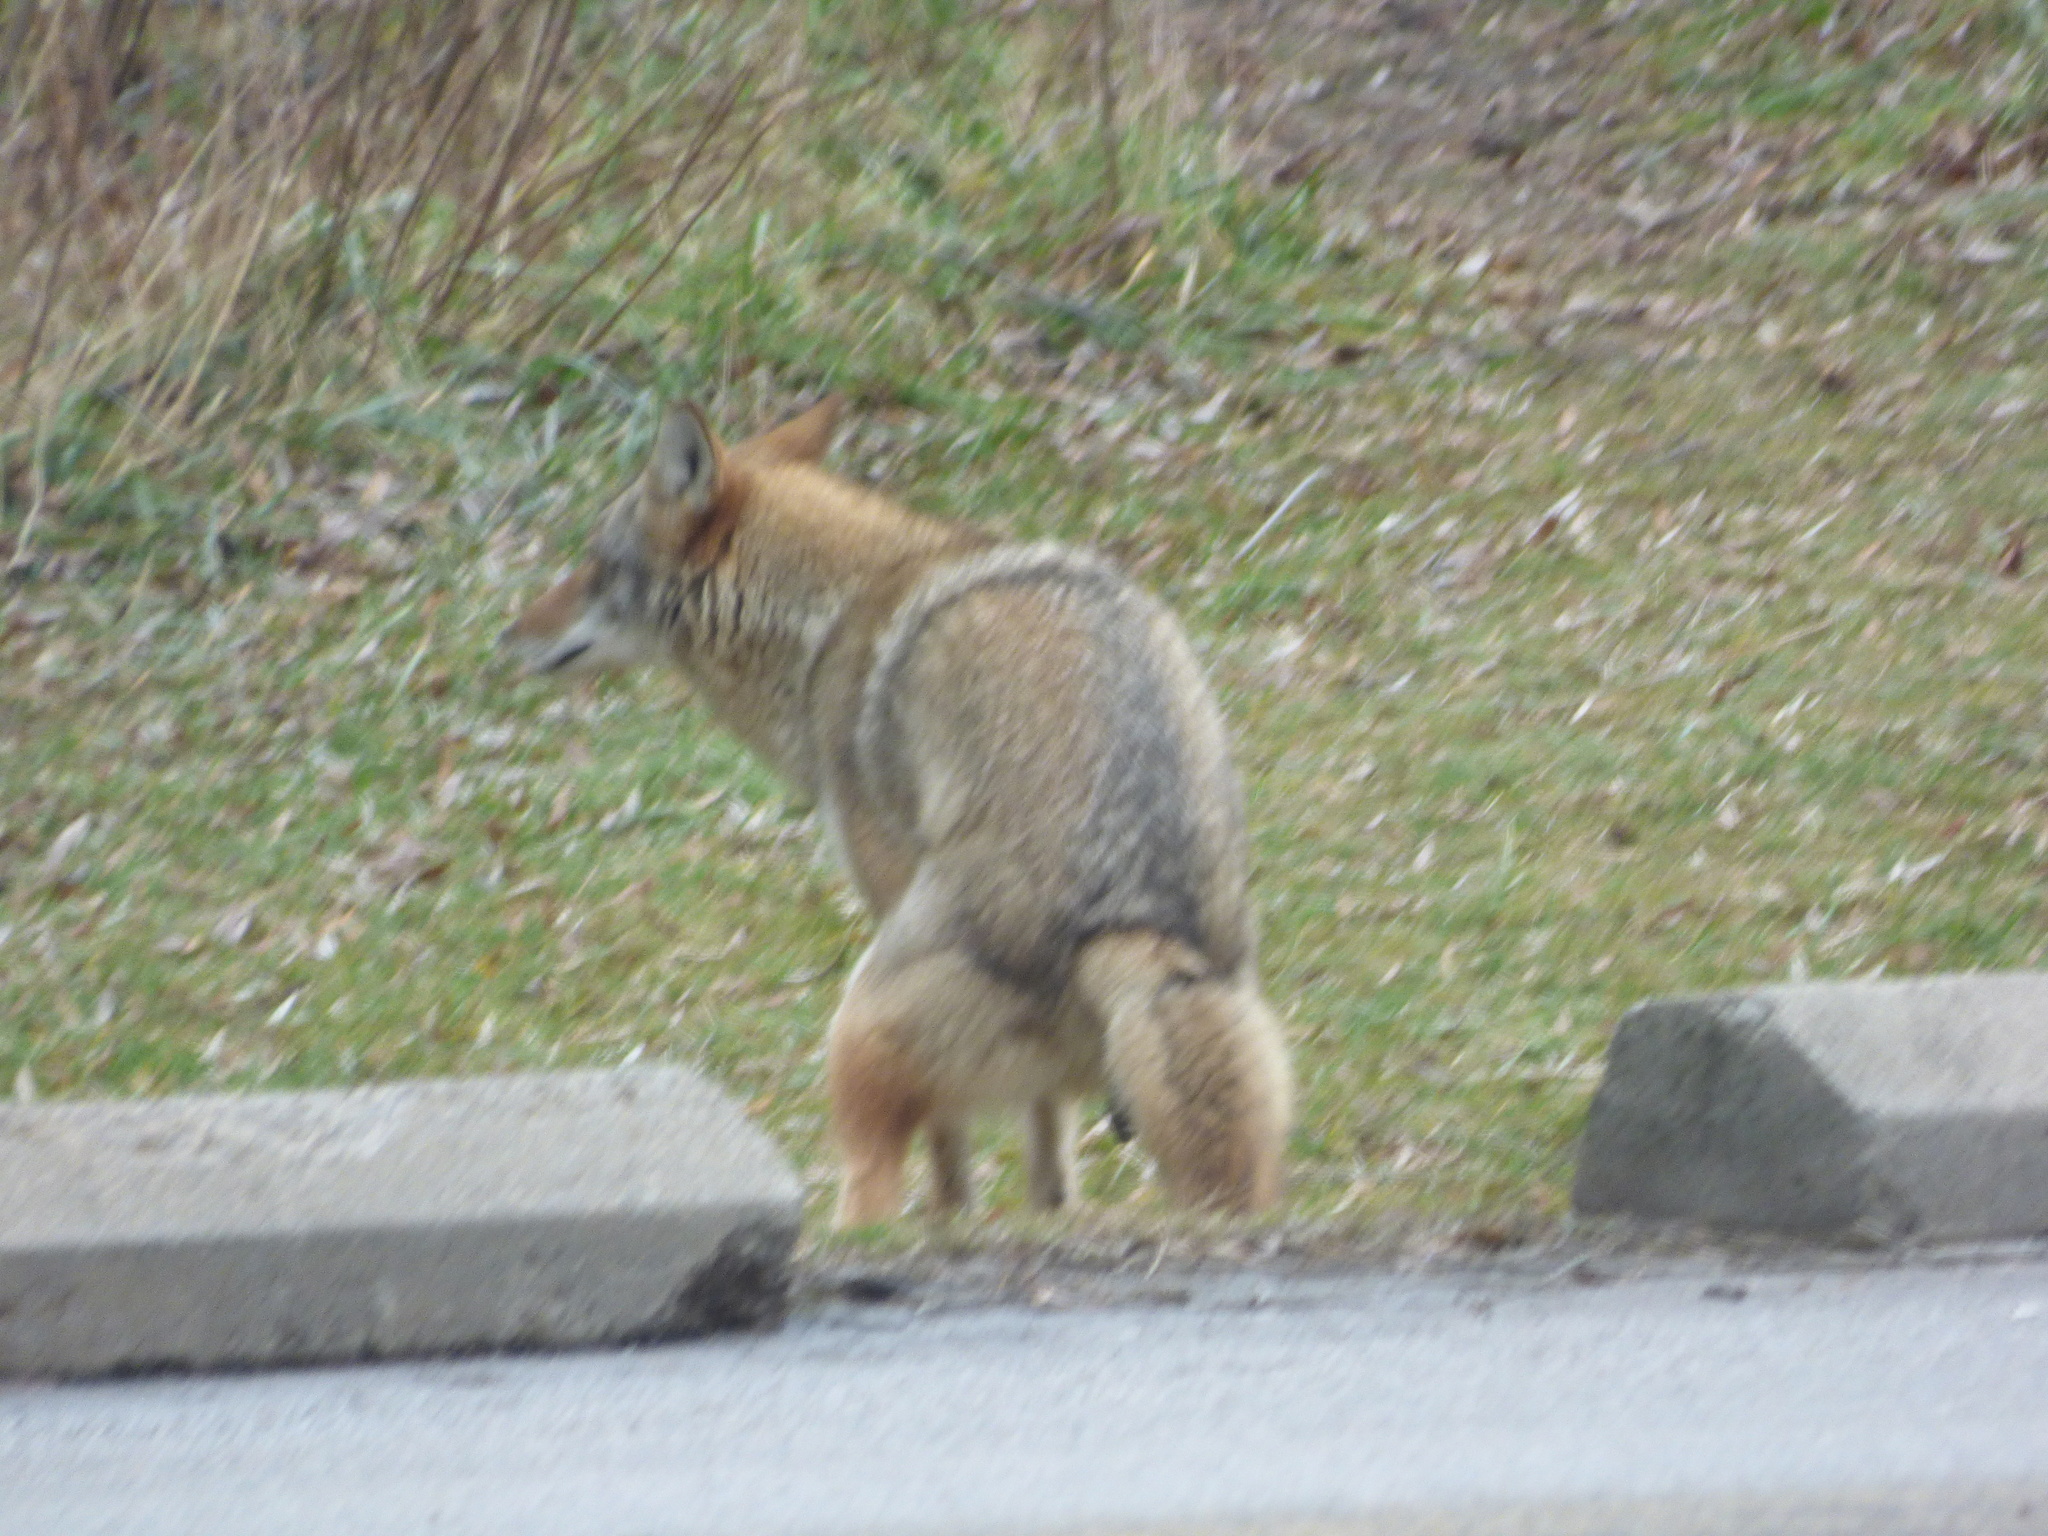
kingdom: Animalia
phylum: Chordata
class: Mammalia
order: Carnivora
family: Canidae
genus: Canis
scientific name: Canis latrans
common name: Coyote
